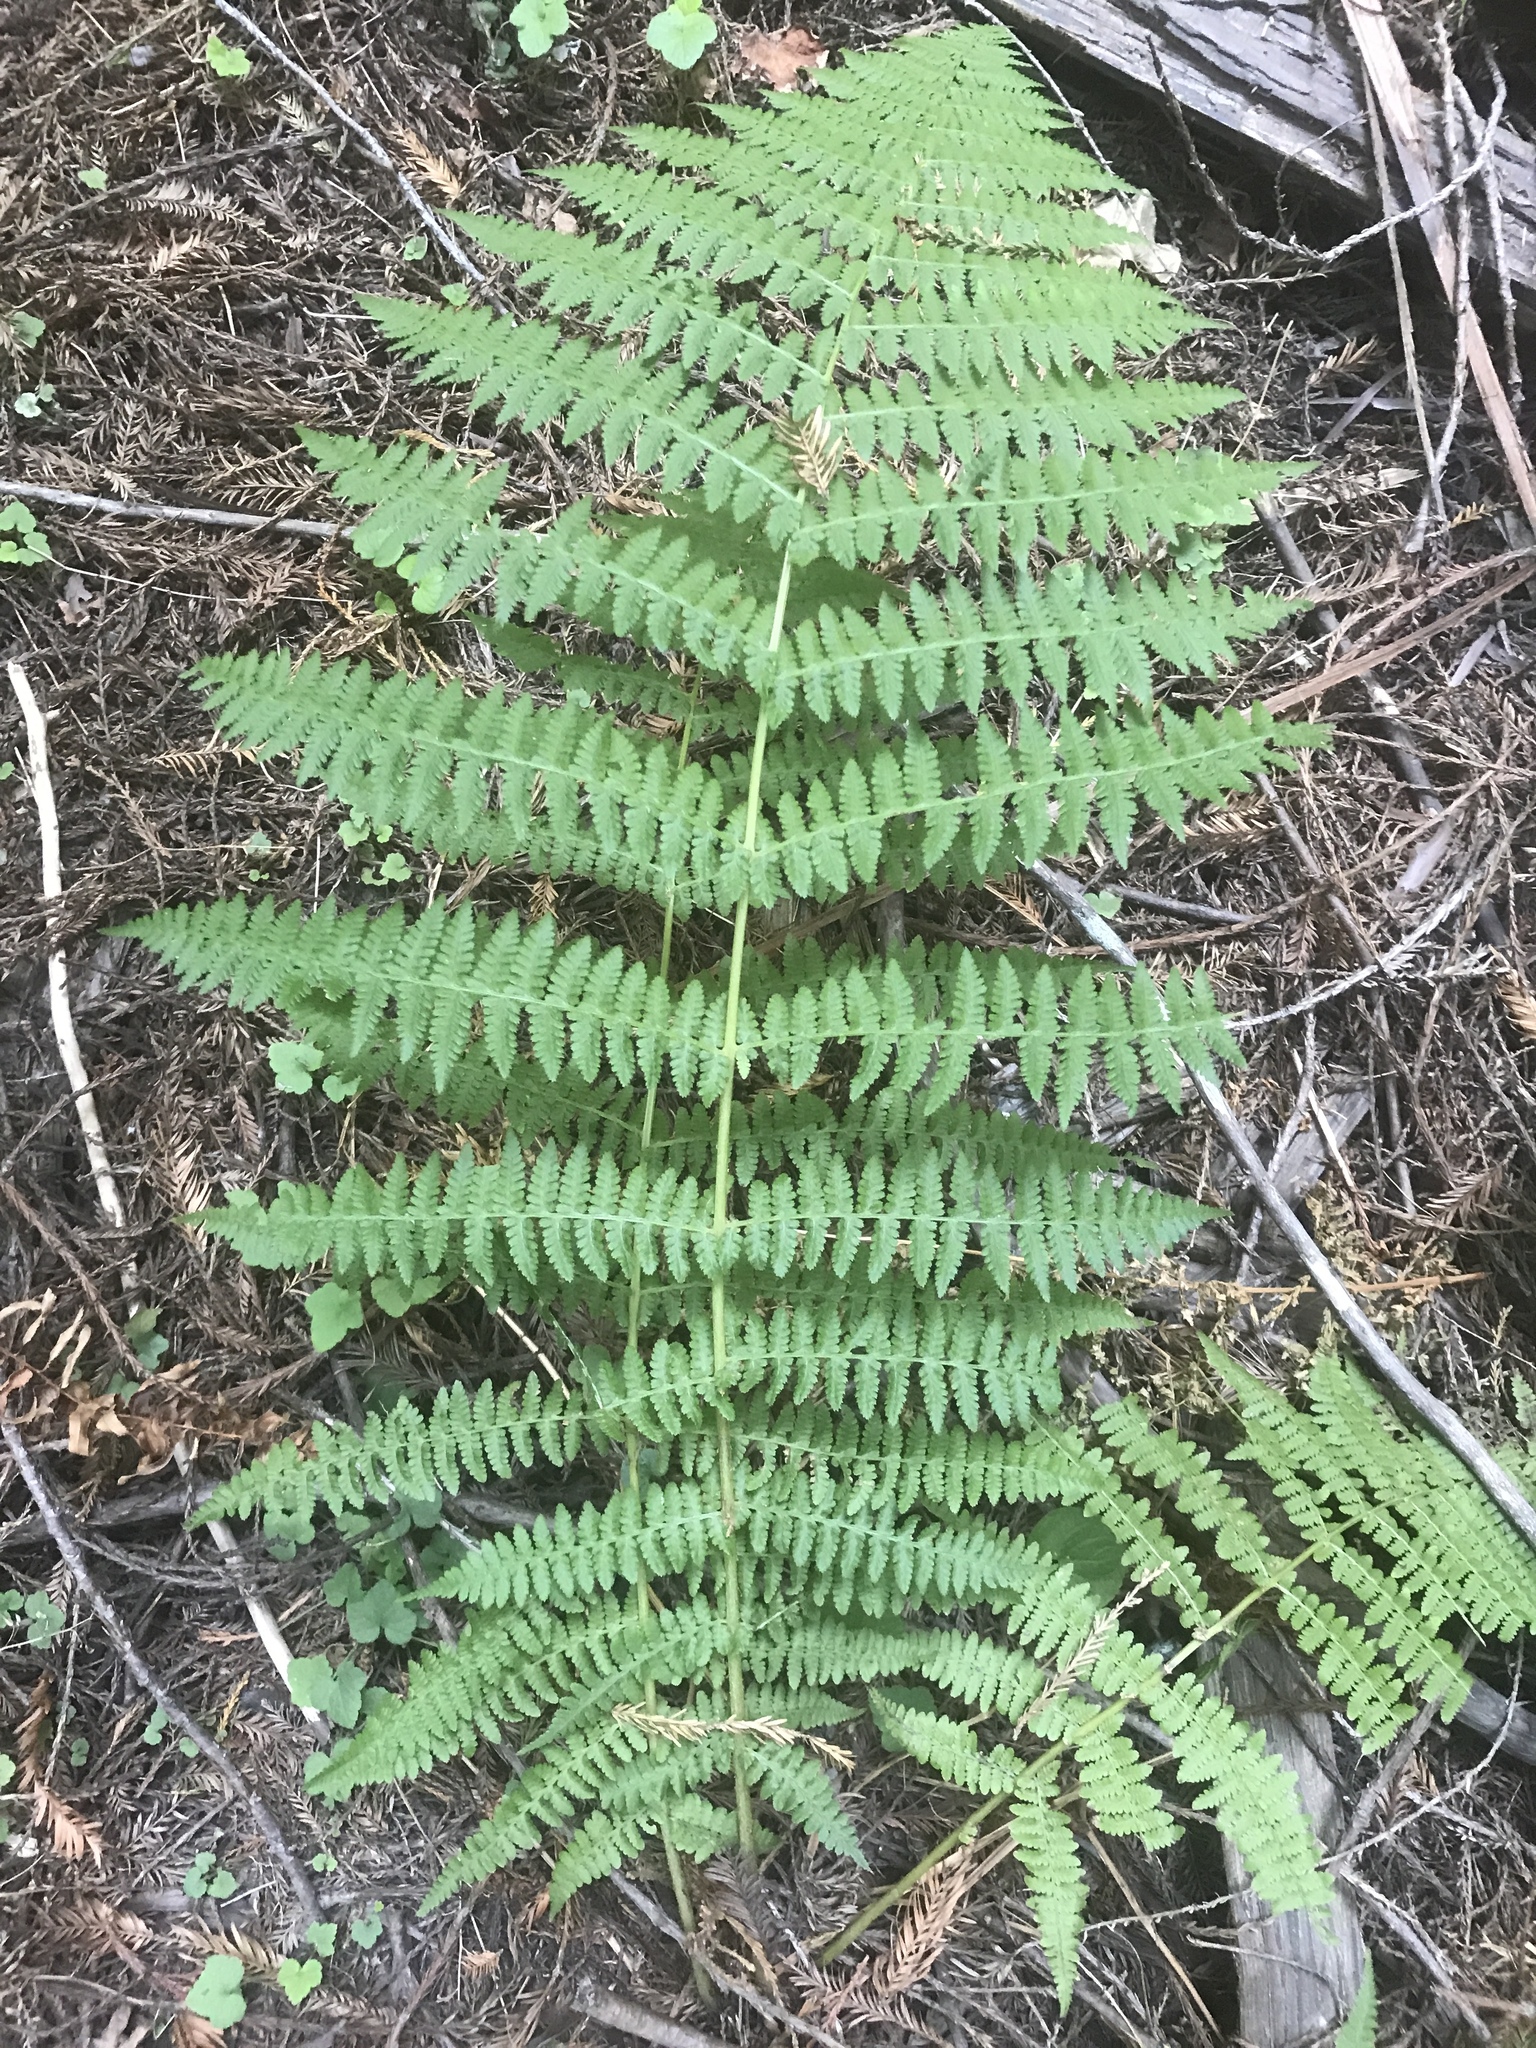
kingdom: Plantae
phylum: Tracheophyta
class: Polypodiopsida
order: Polypodiales
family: Athyriaceae
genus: Athyrium
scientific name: Athyrium cyclosorum
